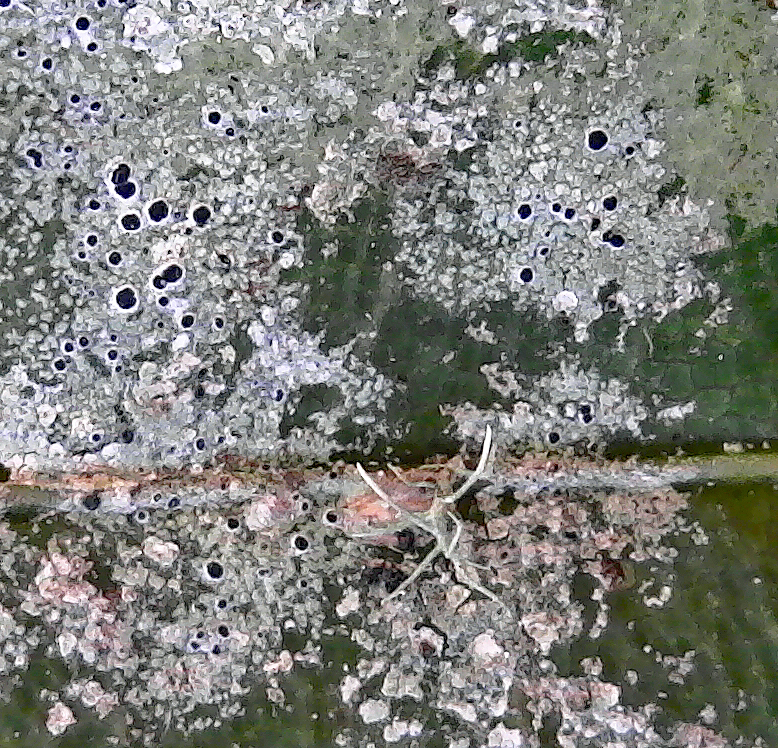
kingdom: Fungi
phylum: Ascomycota
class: Lecanoromycetes
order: Lecanorales
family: Byssolomataceae
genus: Byssoloma
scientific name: Byssoloma subdiscordans
